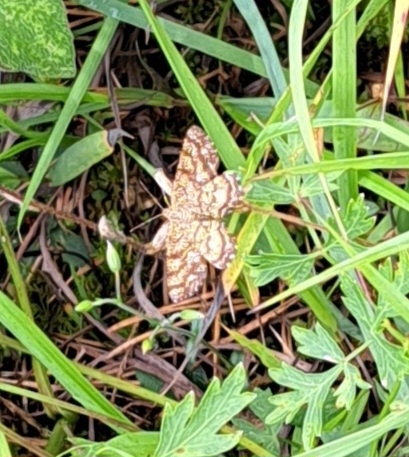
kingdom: Animalia
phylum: Arthropoda
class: Insecta
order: Lepidoptera
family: Geometridae
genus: Ematurga
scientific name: Ematurga atomaria
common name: Common heath
